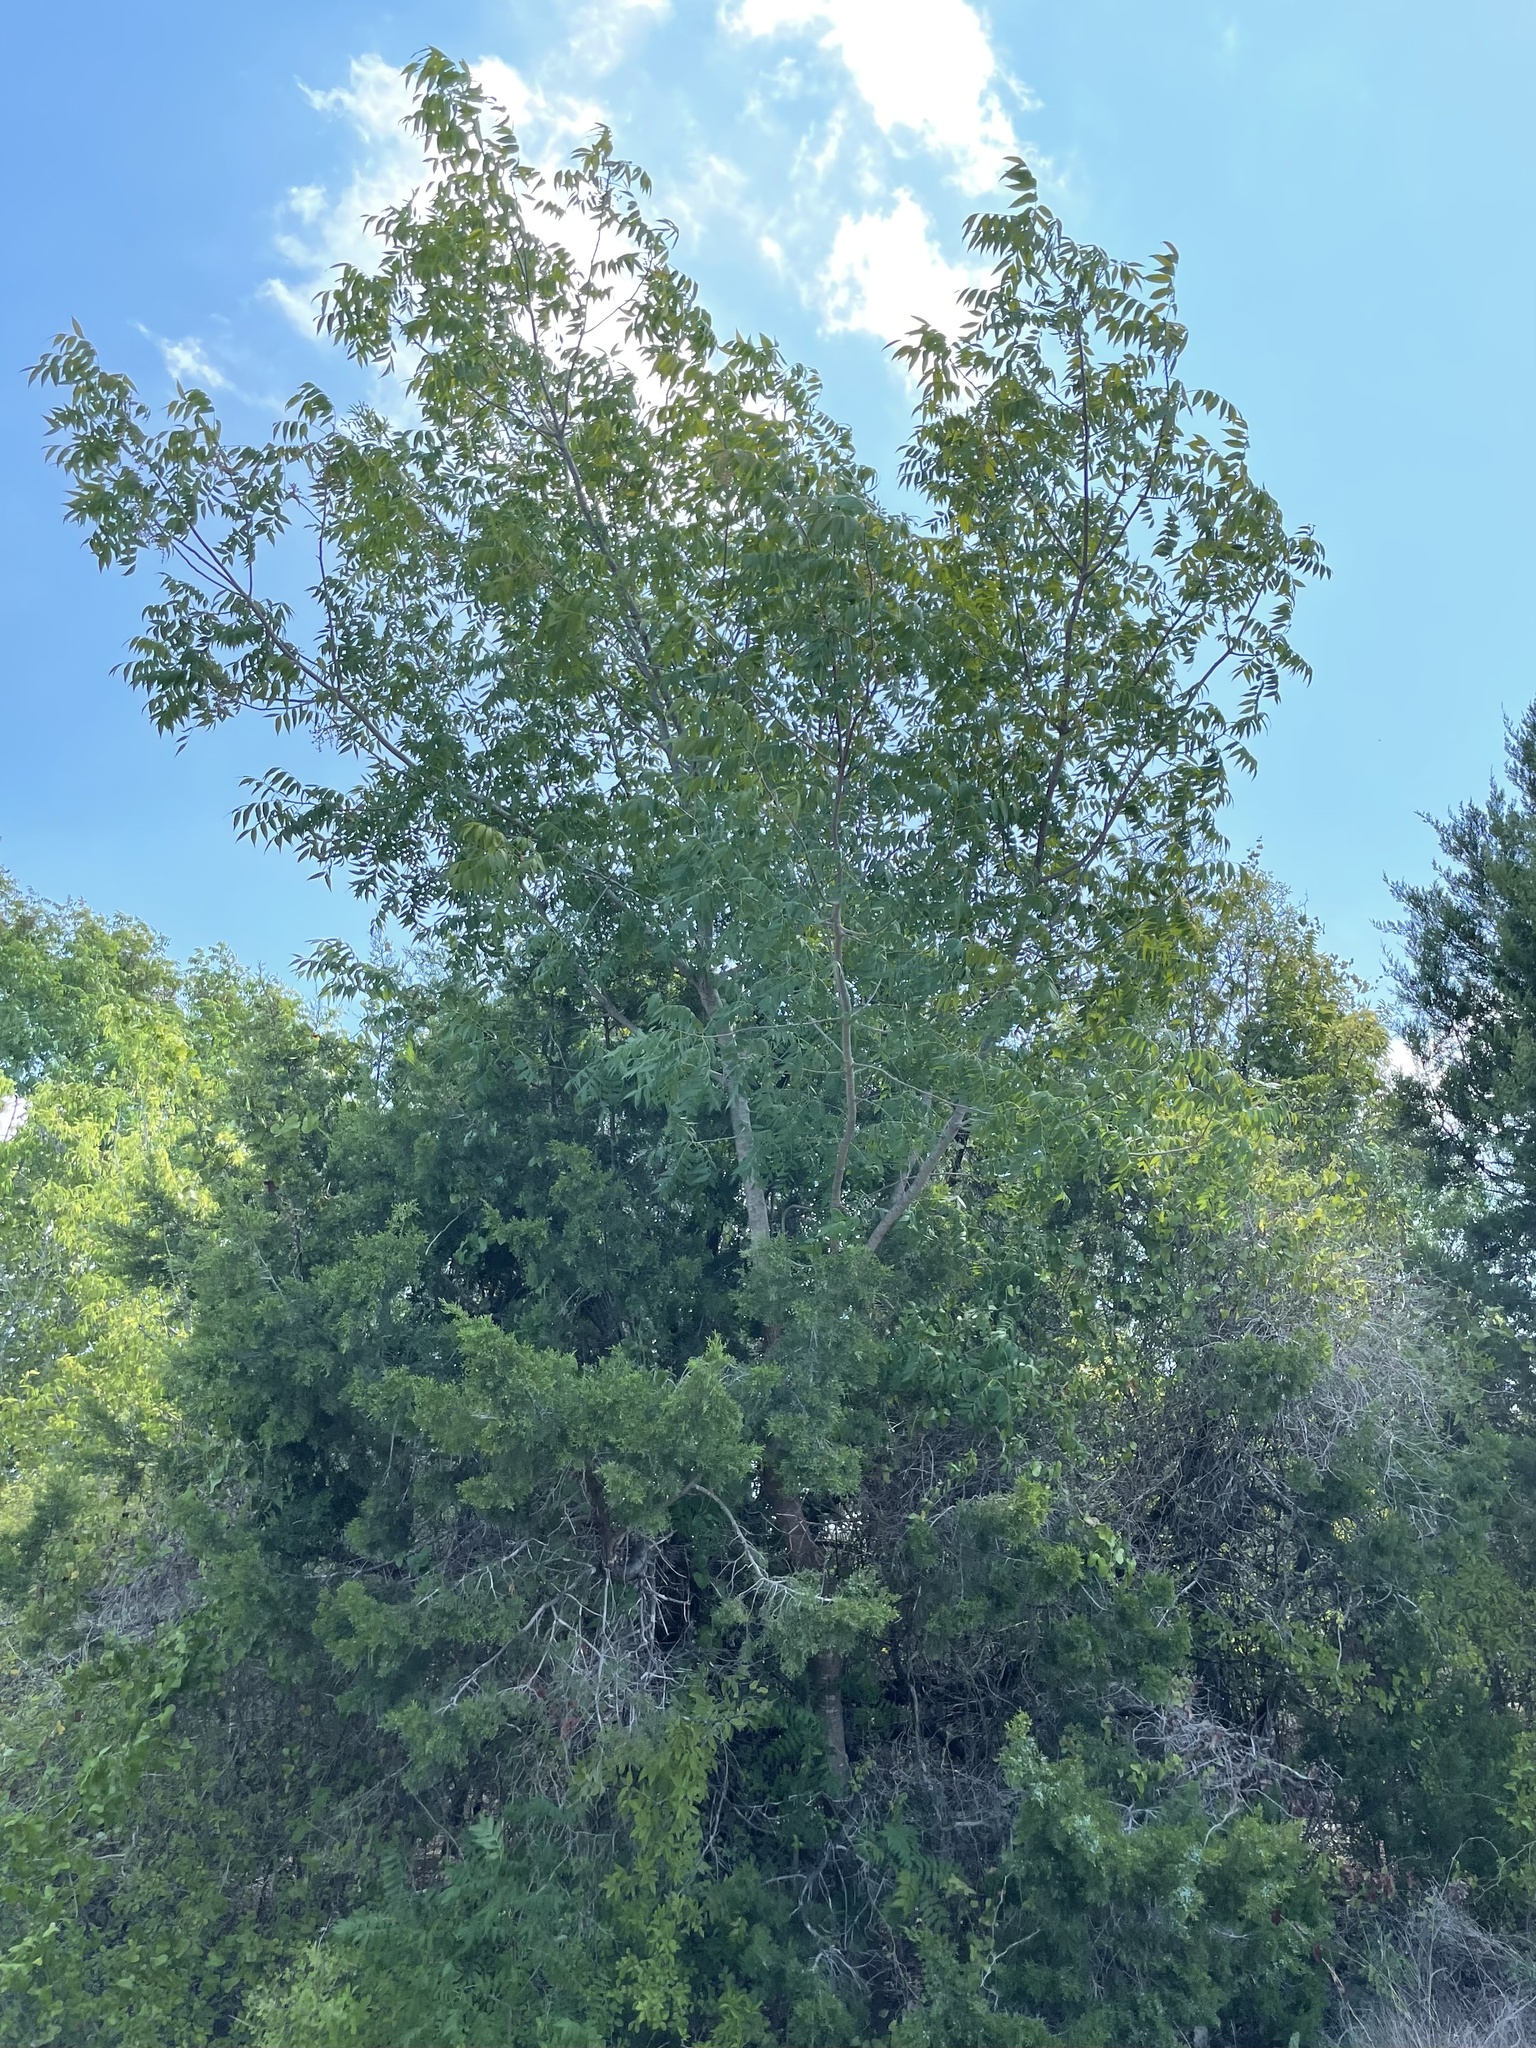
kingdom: Plantae
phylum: Tracheophyta
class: Magnoliopsida
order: Sapindales
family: Anacardiaceae
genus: Pistacia
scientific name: Pistacia chinensis
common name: Chinese pistache
